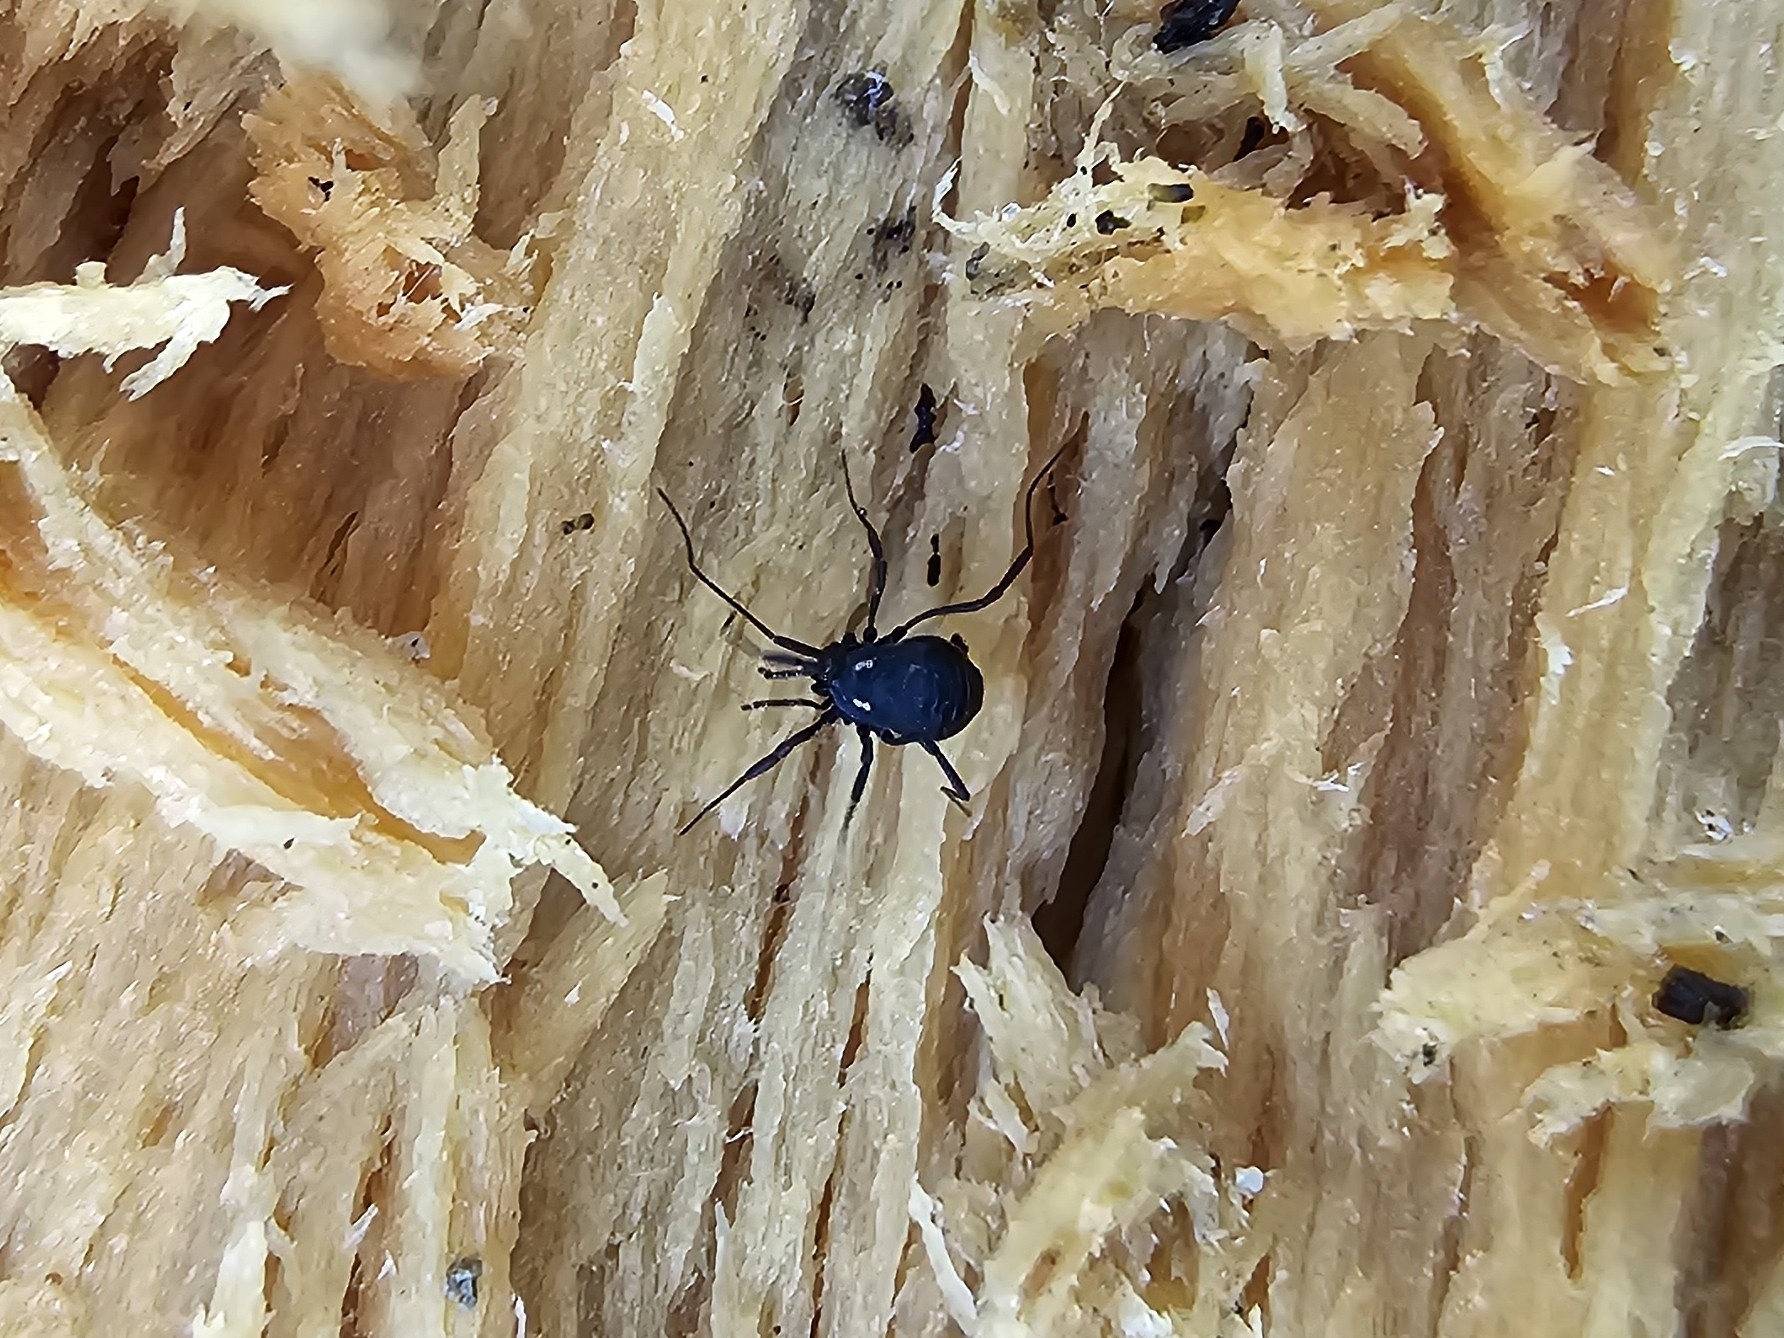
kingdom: Animalia
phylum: Arthropoda
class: Arachnida
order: Opiliones
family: Nemastomatidae
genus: Nemastoma
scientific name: Nemastoma lugubre
